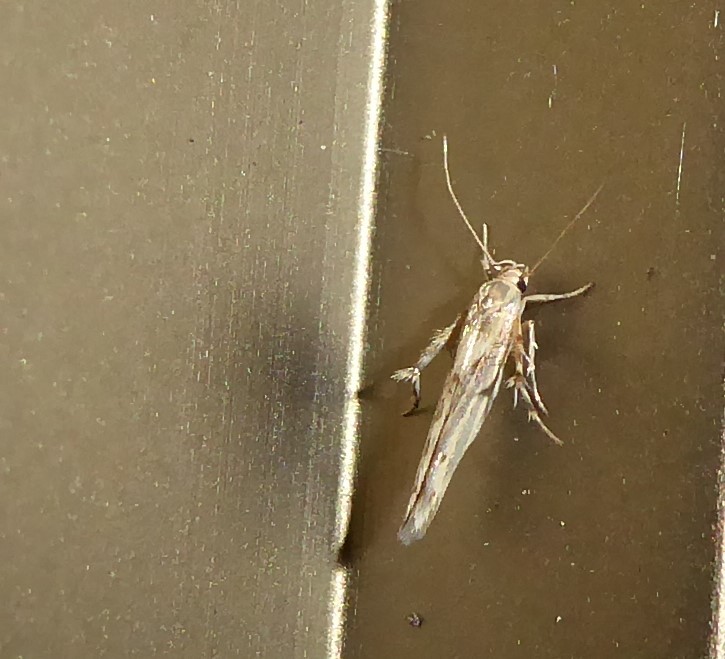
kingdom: Animalia
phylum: Arthropoda
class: Insecta
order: Lepidoptera
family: Stathmopodidae
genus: Stathmopoda
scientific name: Stathmopoda plumbiflua
